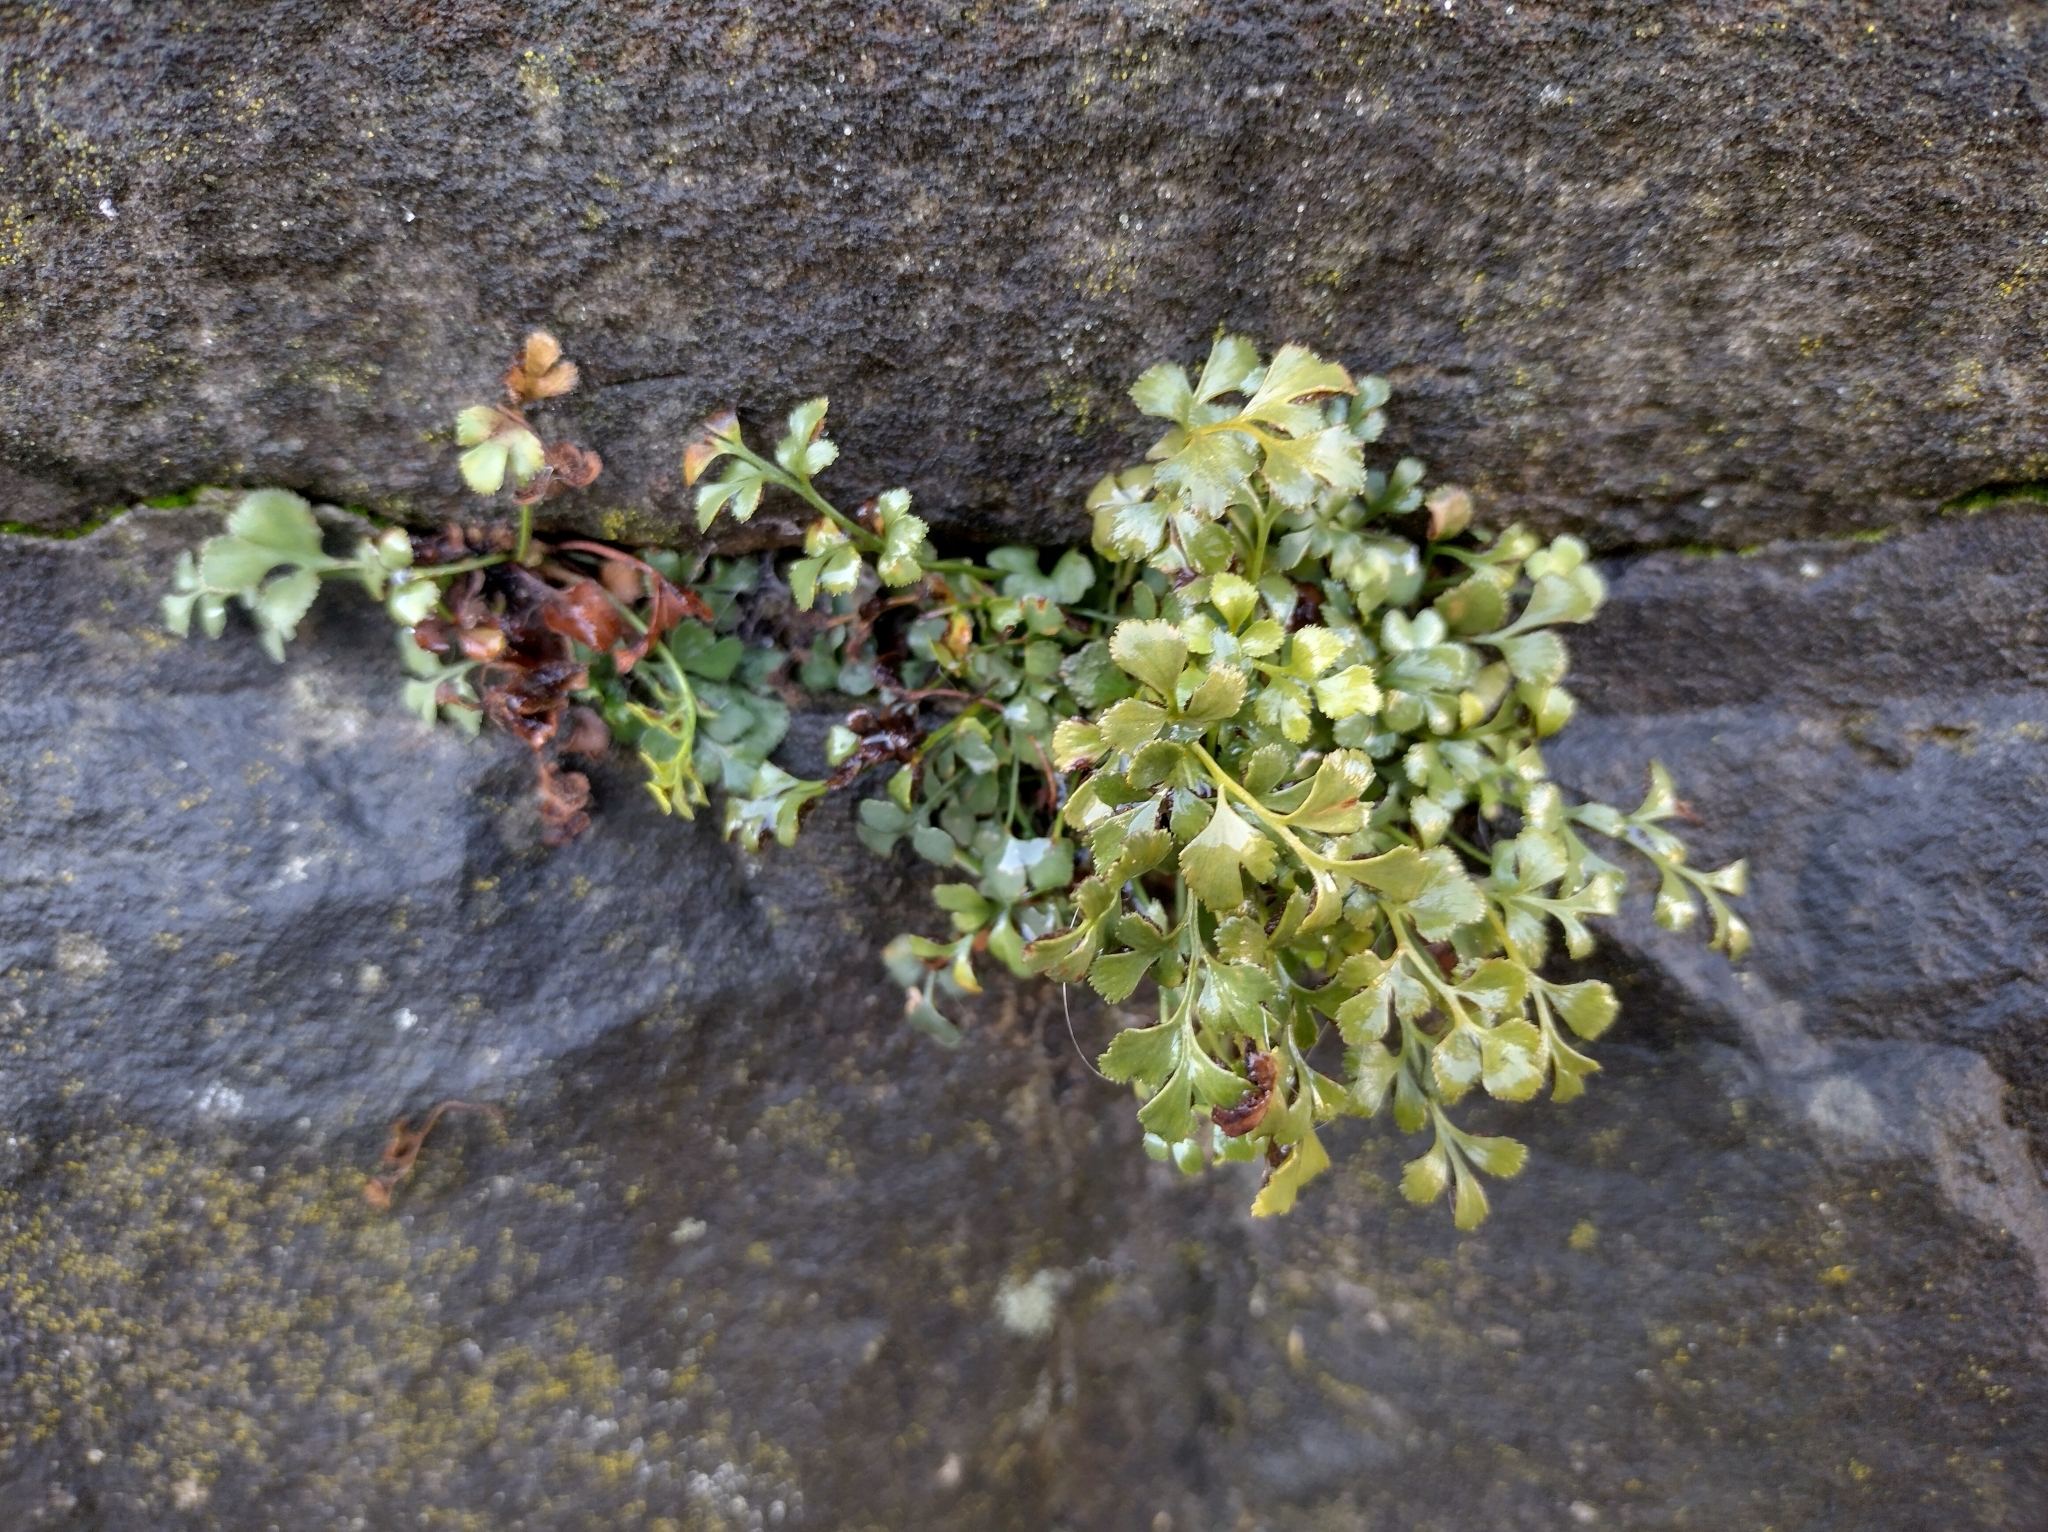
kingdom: Plantae
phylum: Tracheophyta
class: Polypodiopsida
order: Polypodiales
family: Aspleniaceae
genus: Asplenium
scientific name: Asplenium ruta-muraria
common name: Wall-rue
